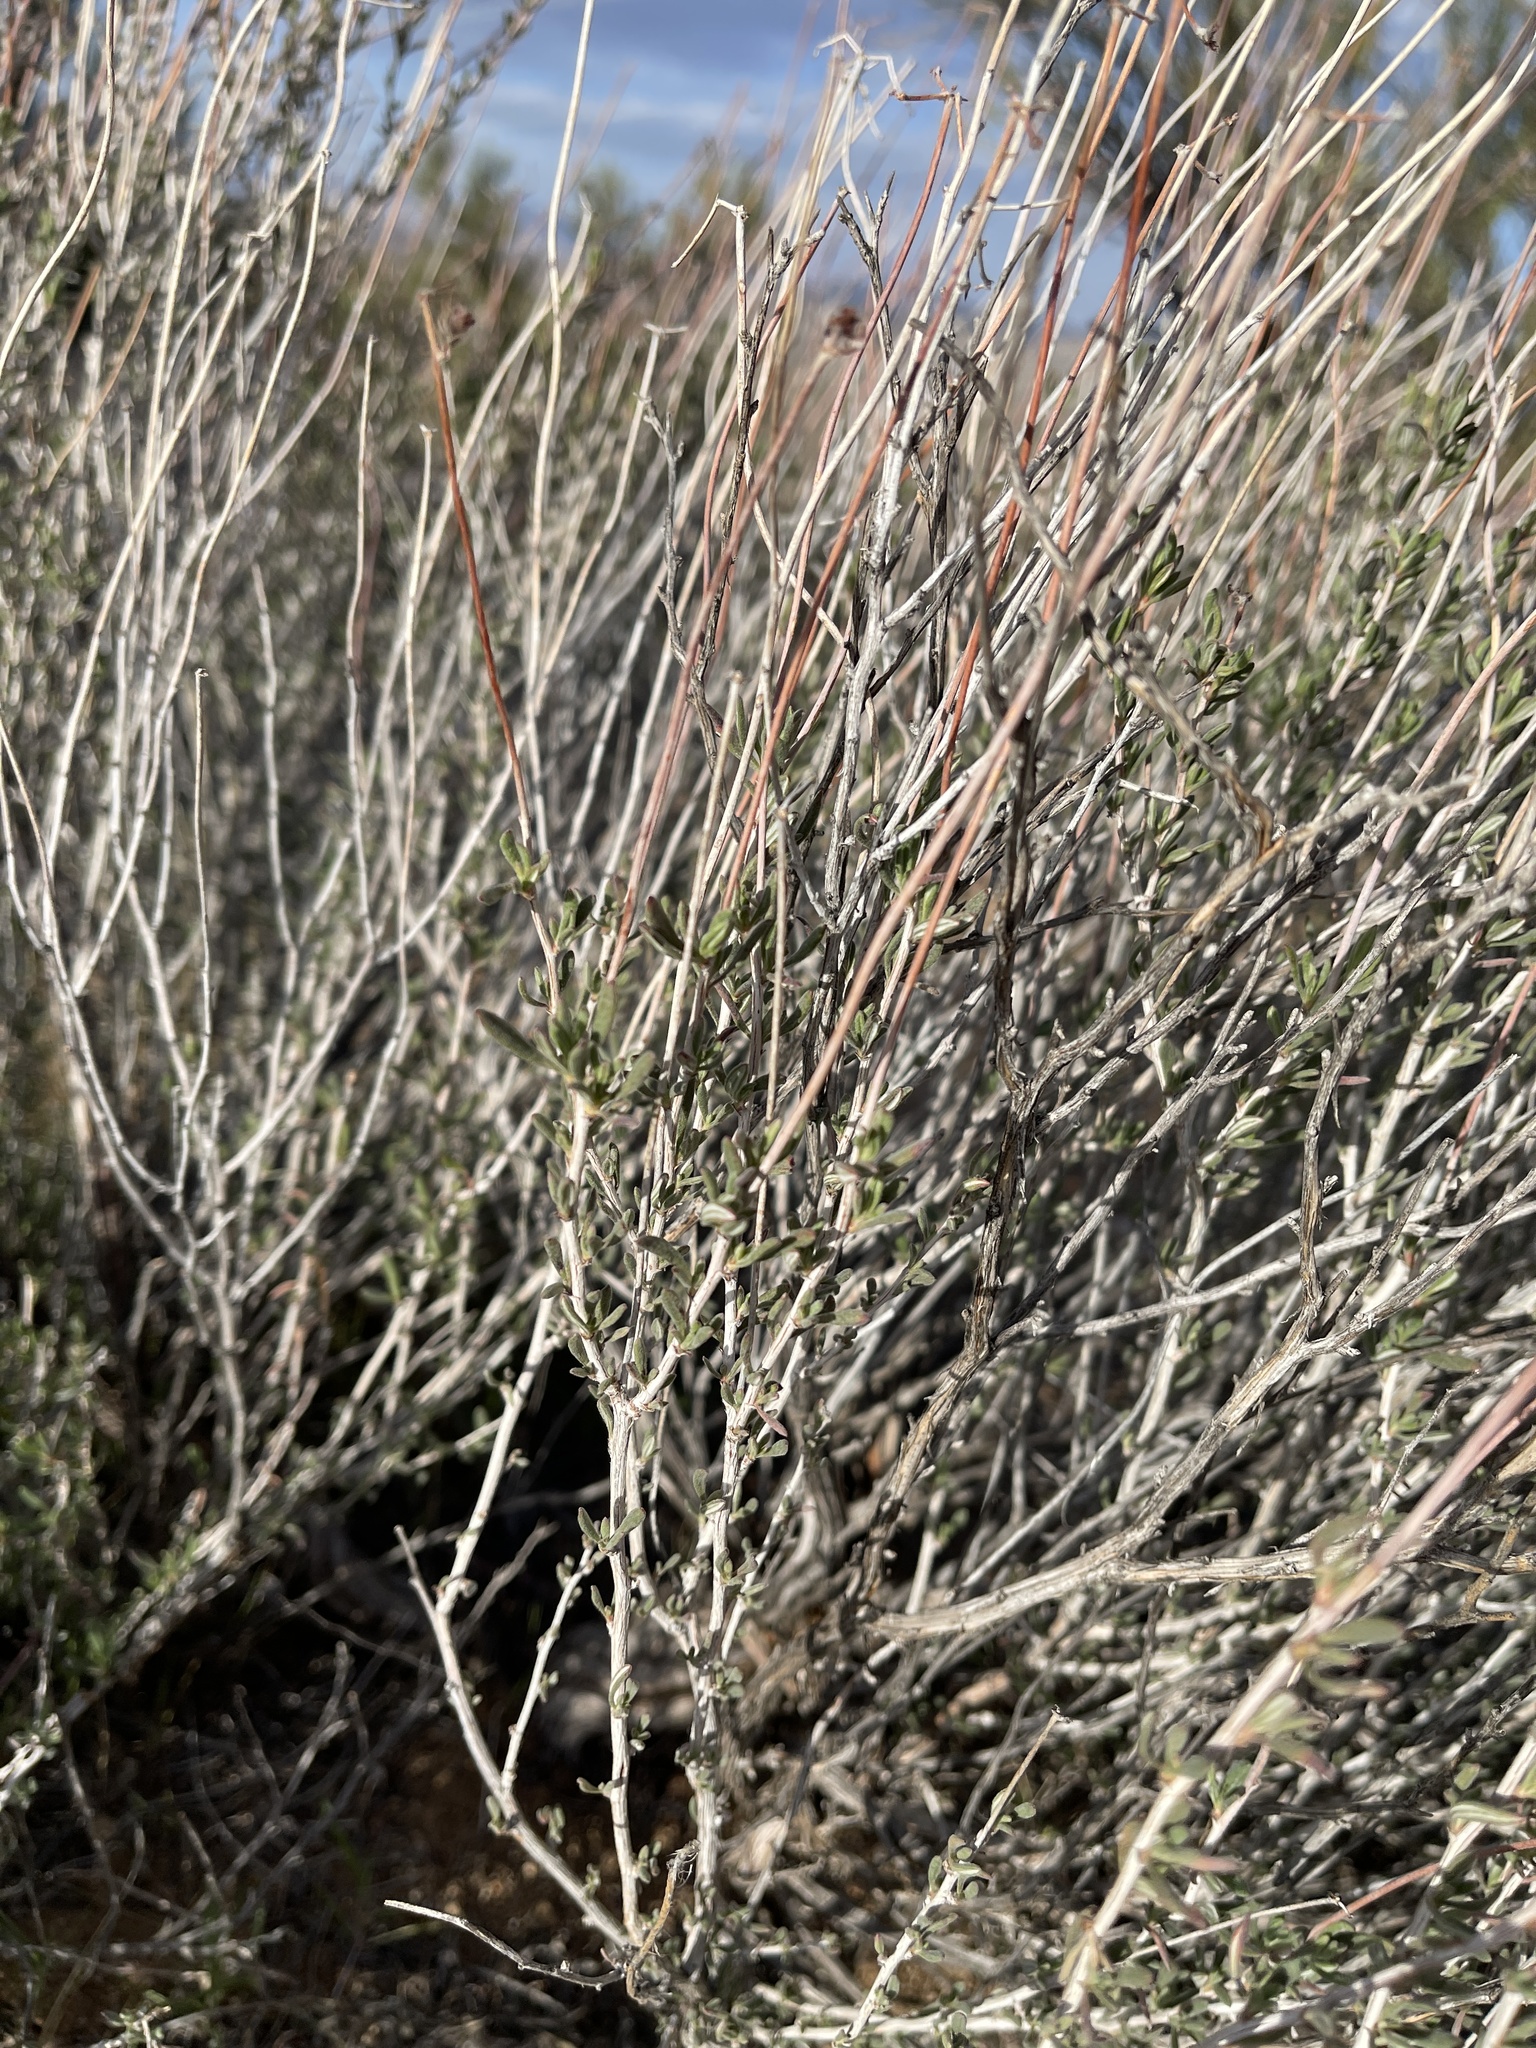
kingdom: Plantae
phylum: Tracheophyta
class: Magnoliopsida
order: Caryophyllales
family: Polygonaceae
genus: Eriogonum
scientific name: Eriogonum fasciculatum
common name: California wild buckwheat
